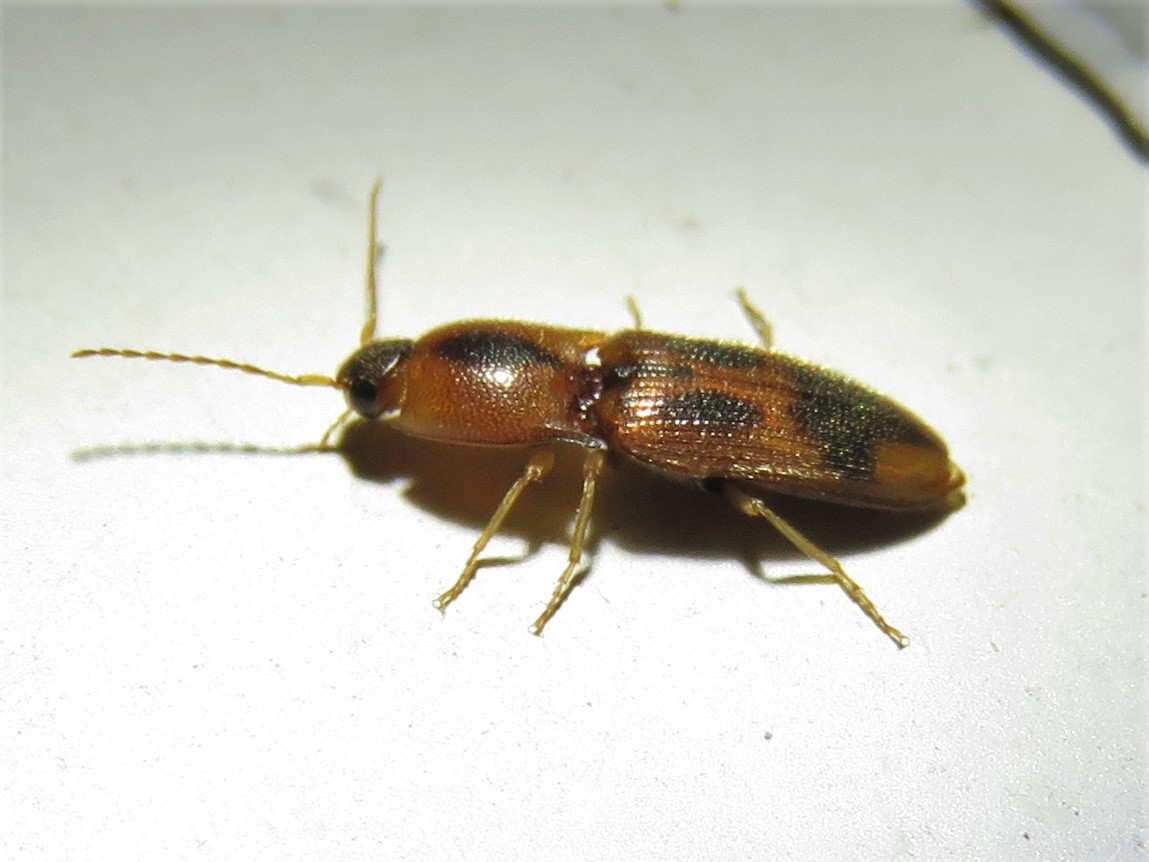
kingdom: Animalia
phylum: Arthropoda
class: Insecta
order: Coleoptera
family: Elateridae
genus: Aeolus
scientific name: Aeolus
